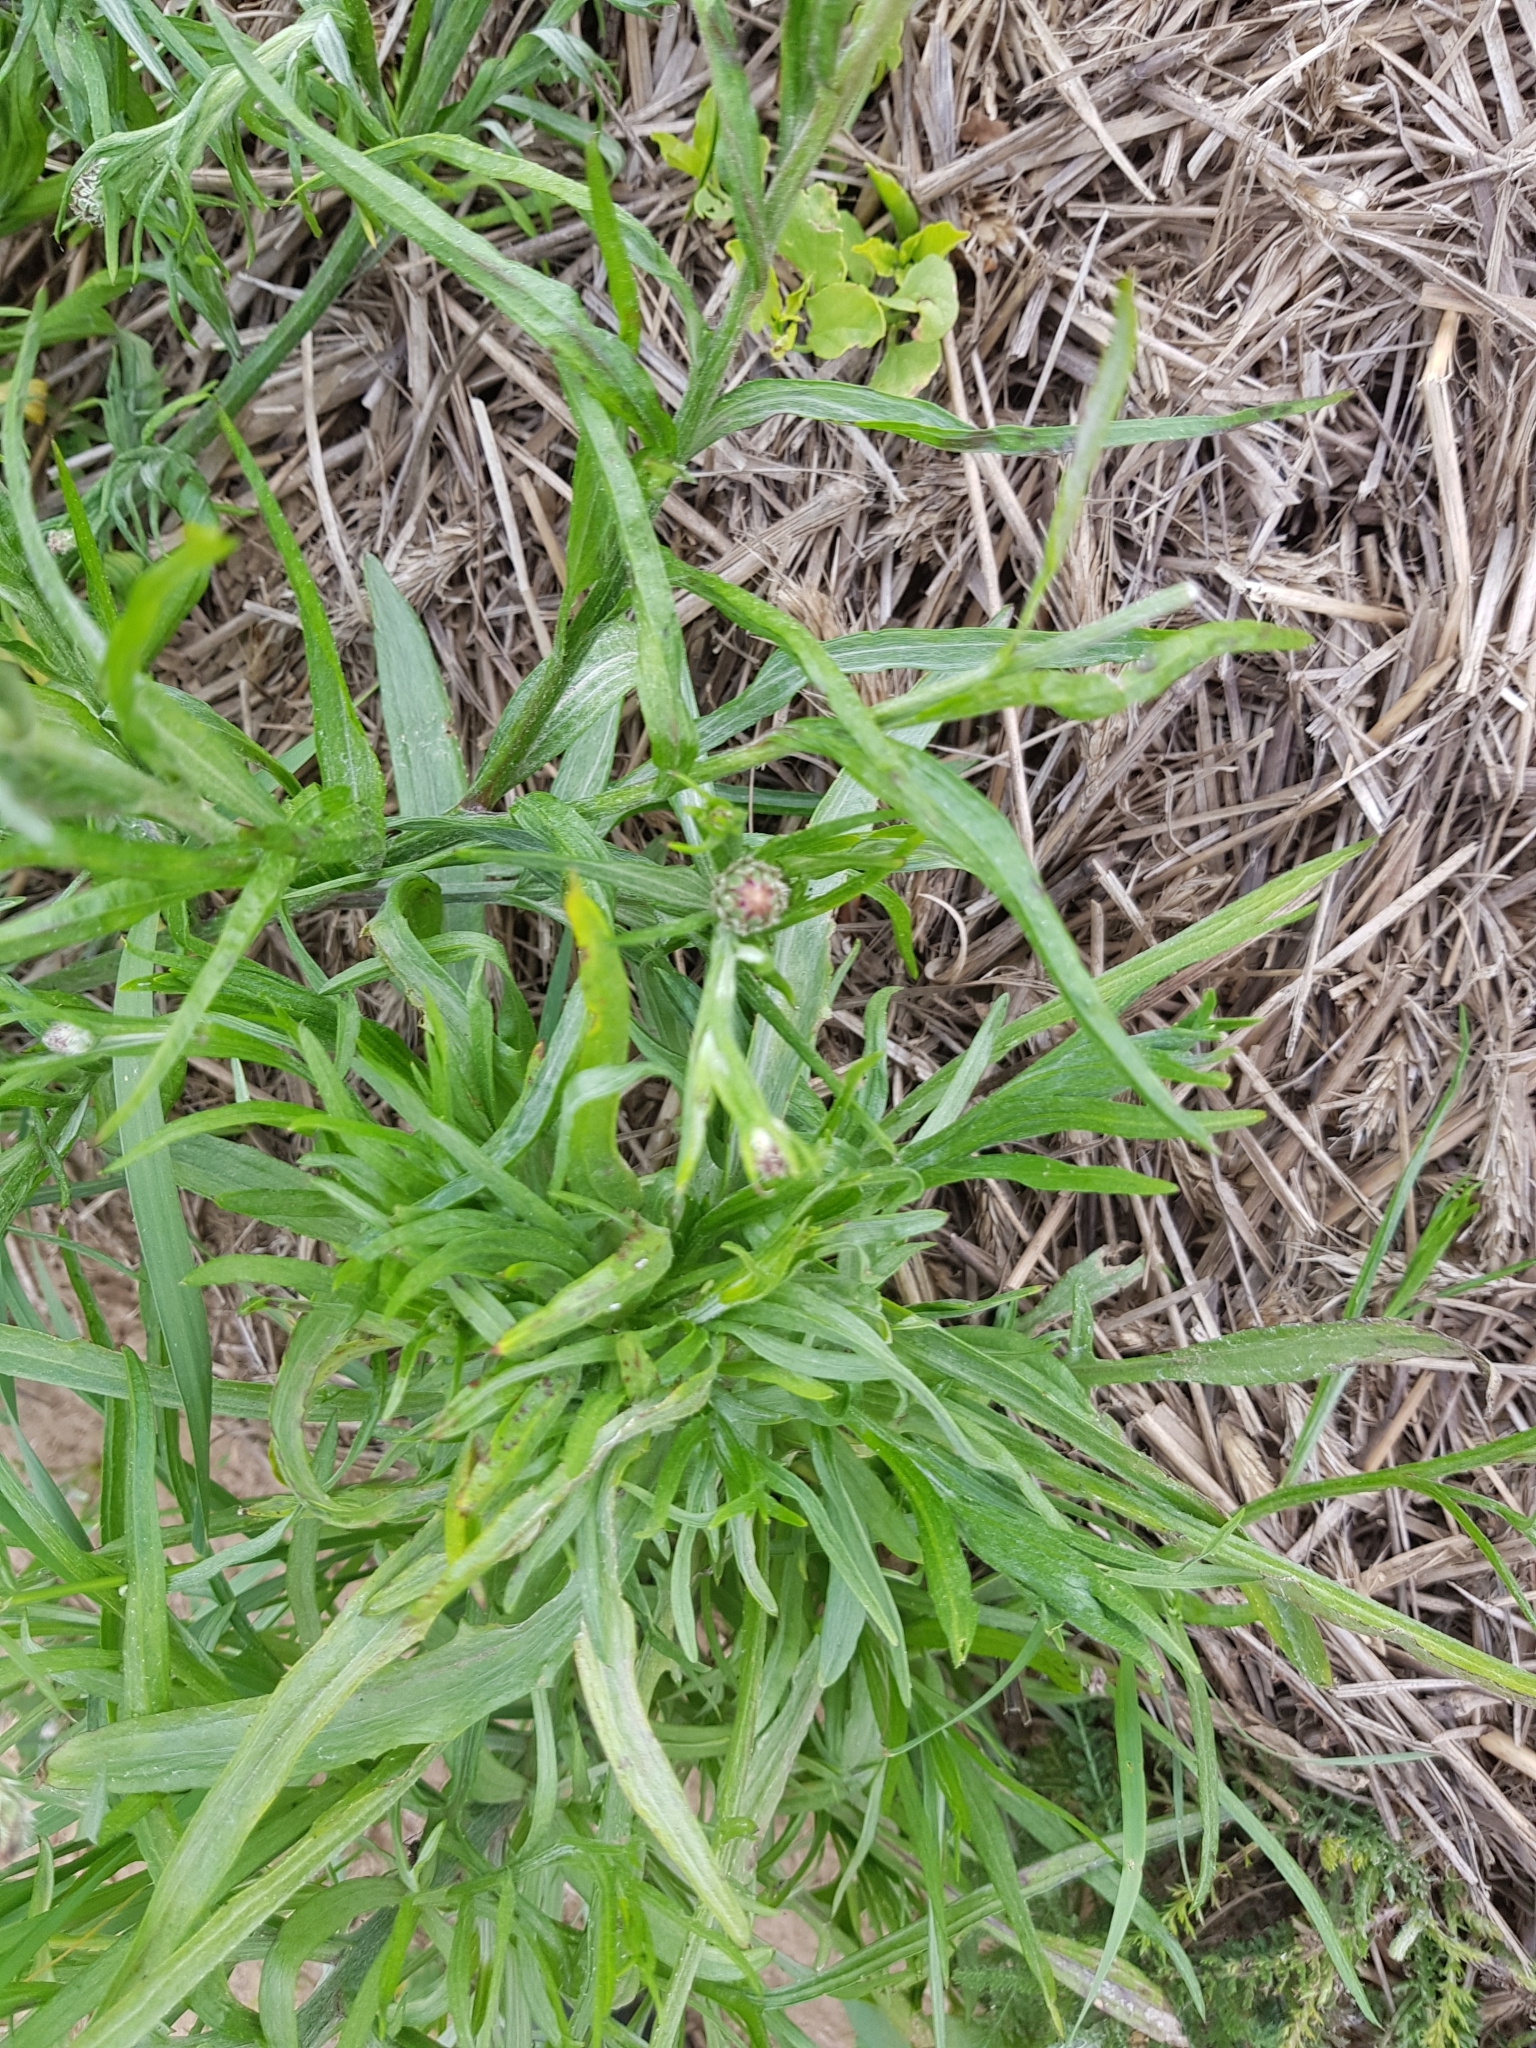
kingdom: Plantae
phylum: Tracheophyta
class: Magnoliopsida
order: Asterales
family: Asteraceae
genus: Centaurea
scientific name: Centaurea cyanus
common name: Cornflower
